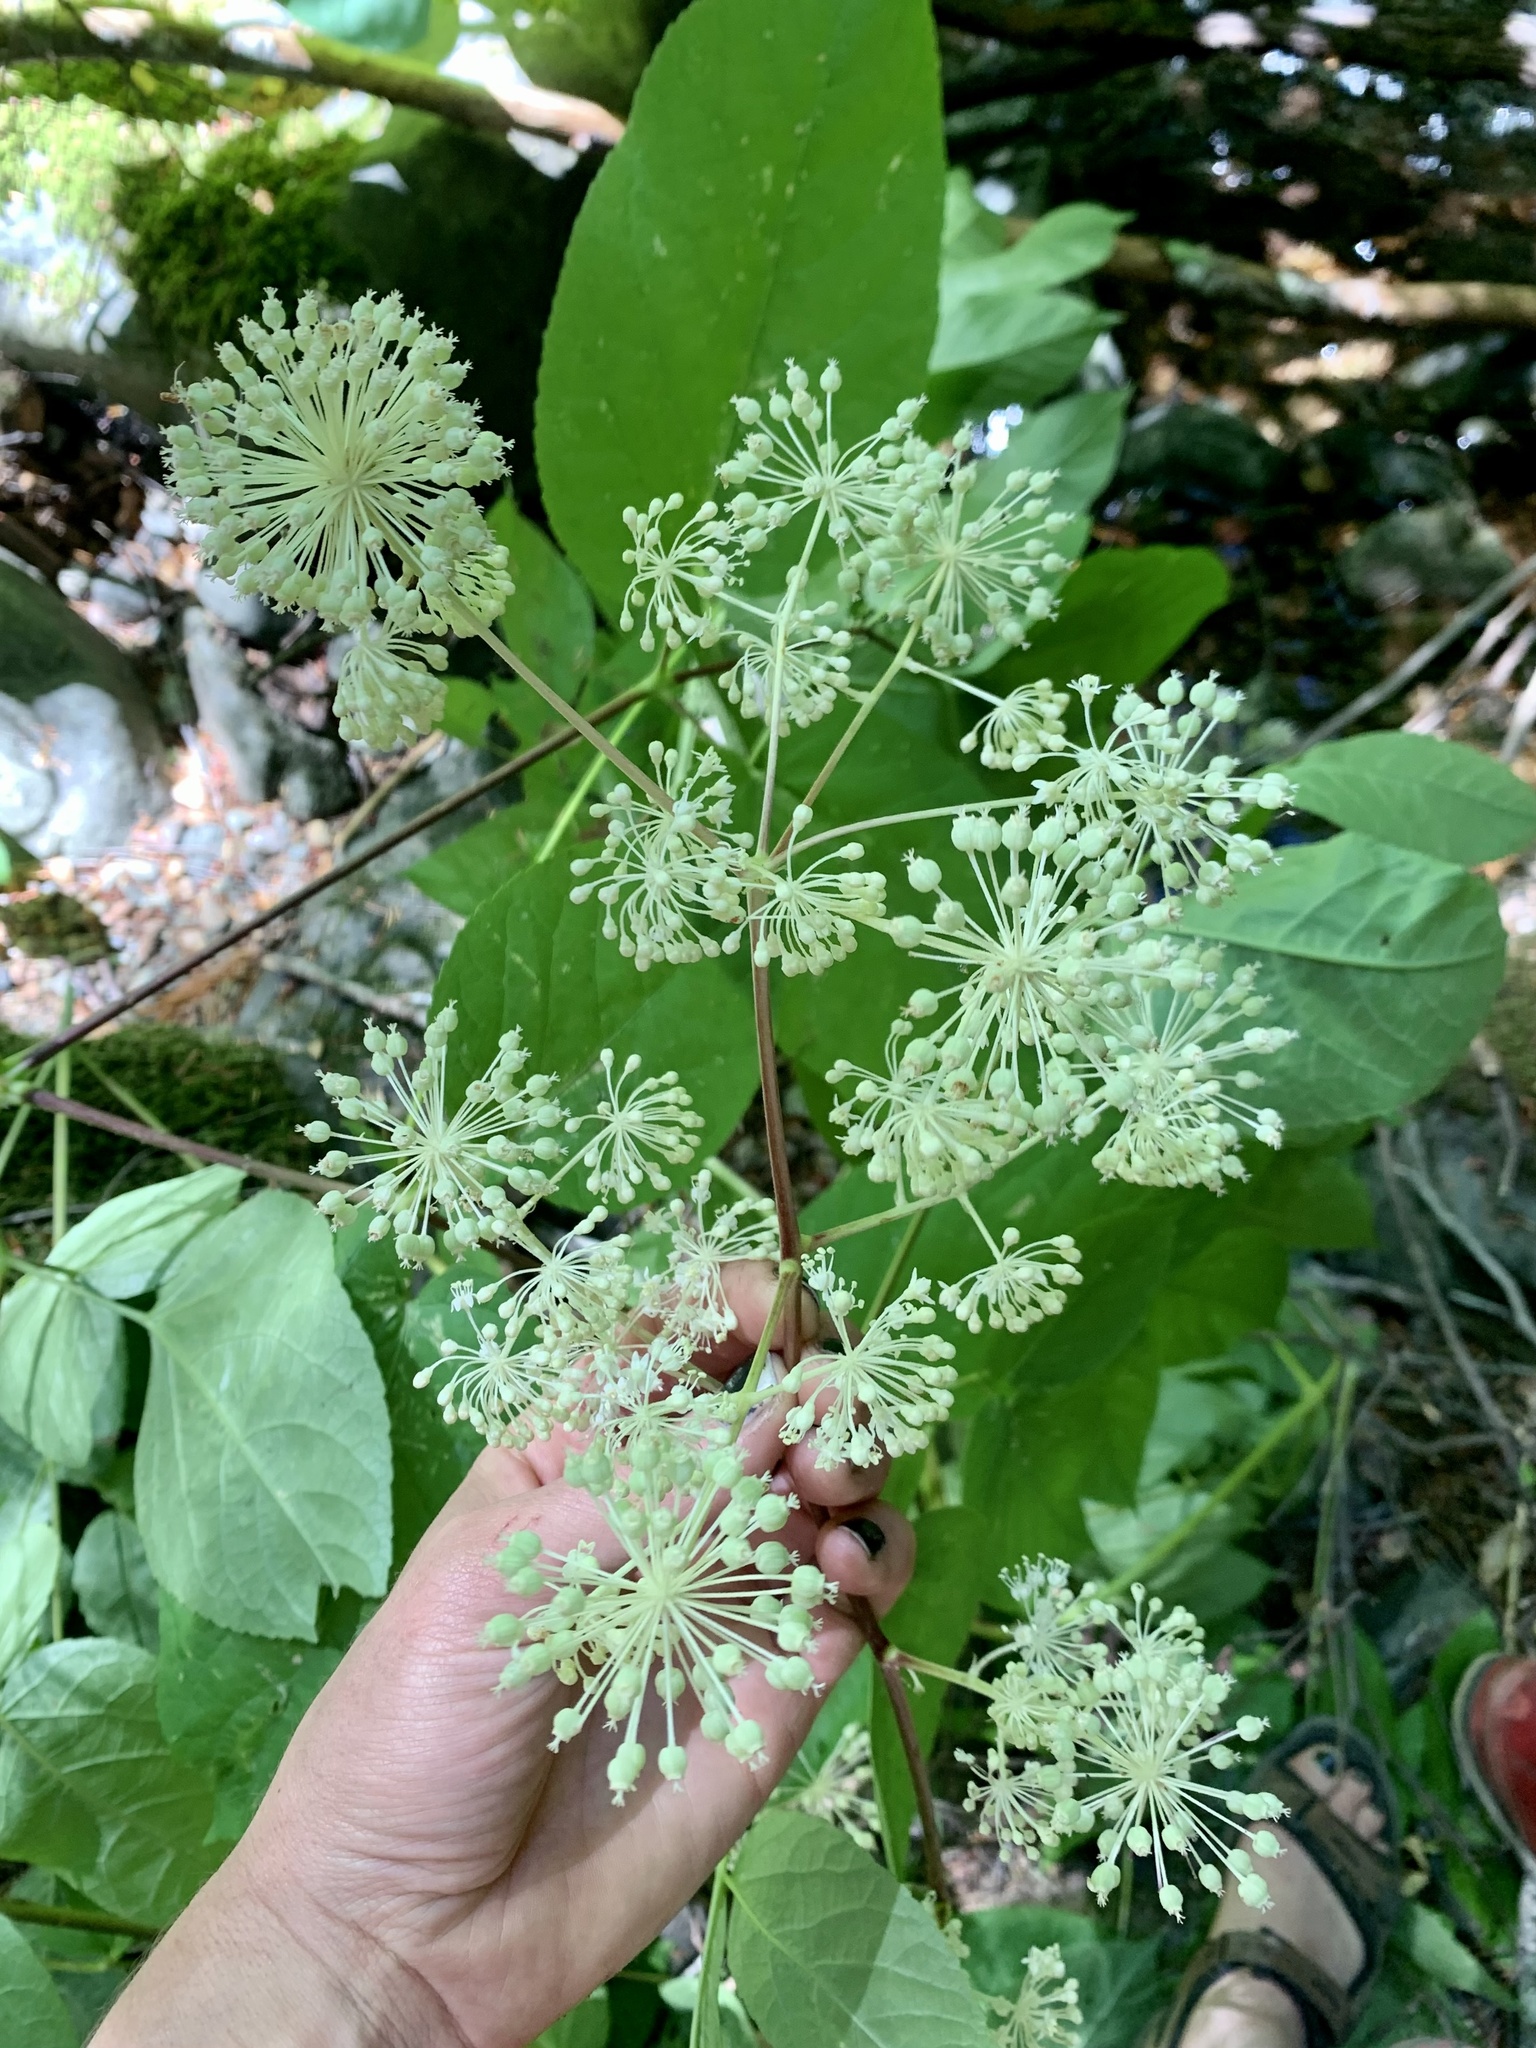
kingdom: Plantae
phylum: Tracheophyta
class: Magnoliopsida
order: Apiales
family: Araliaceae
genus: Aralia
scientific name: Aralia californica
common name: California-ginseng
